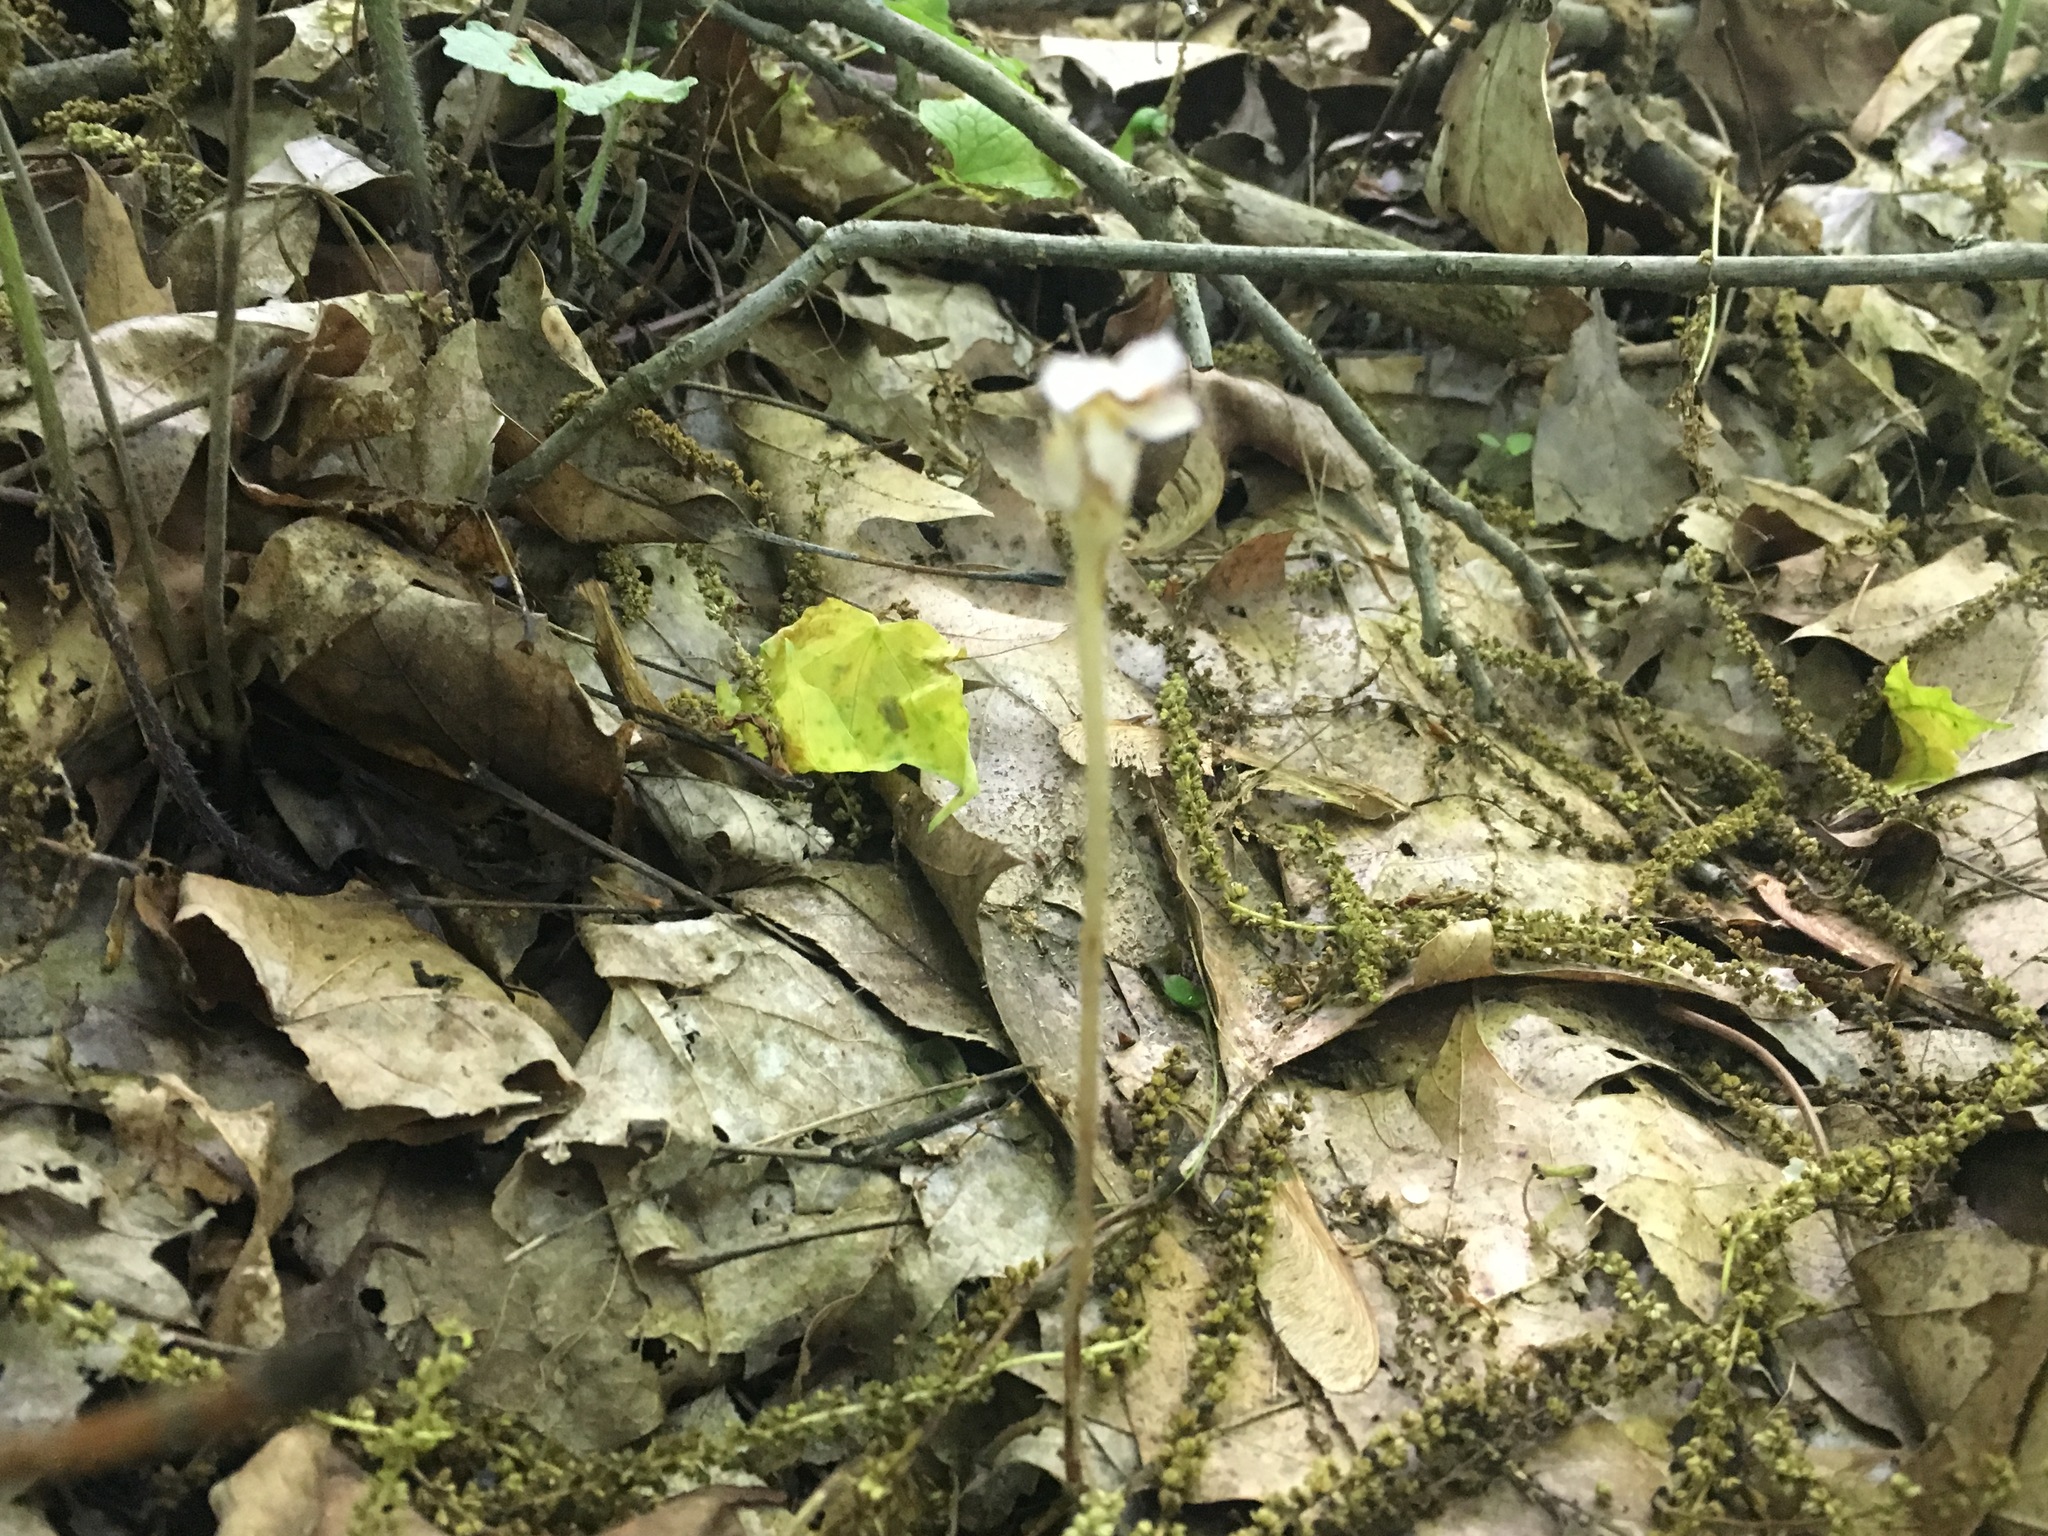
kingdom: Plantae
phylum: Tracheophyta
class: Magnoliopsida
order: Lamiales
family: Orobanchaceae
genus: Aphyllon
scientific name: Aphyllon uniflorum
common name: One-flowered broomrape
